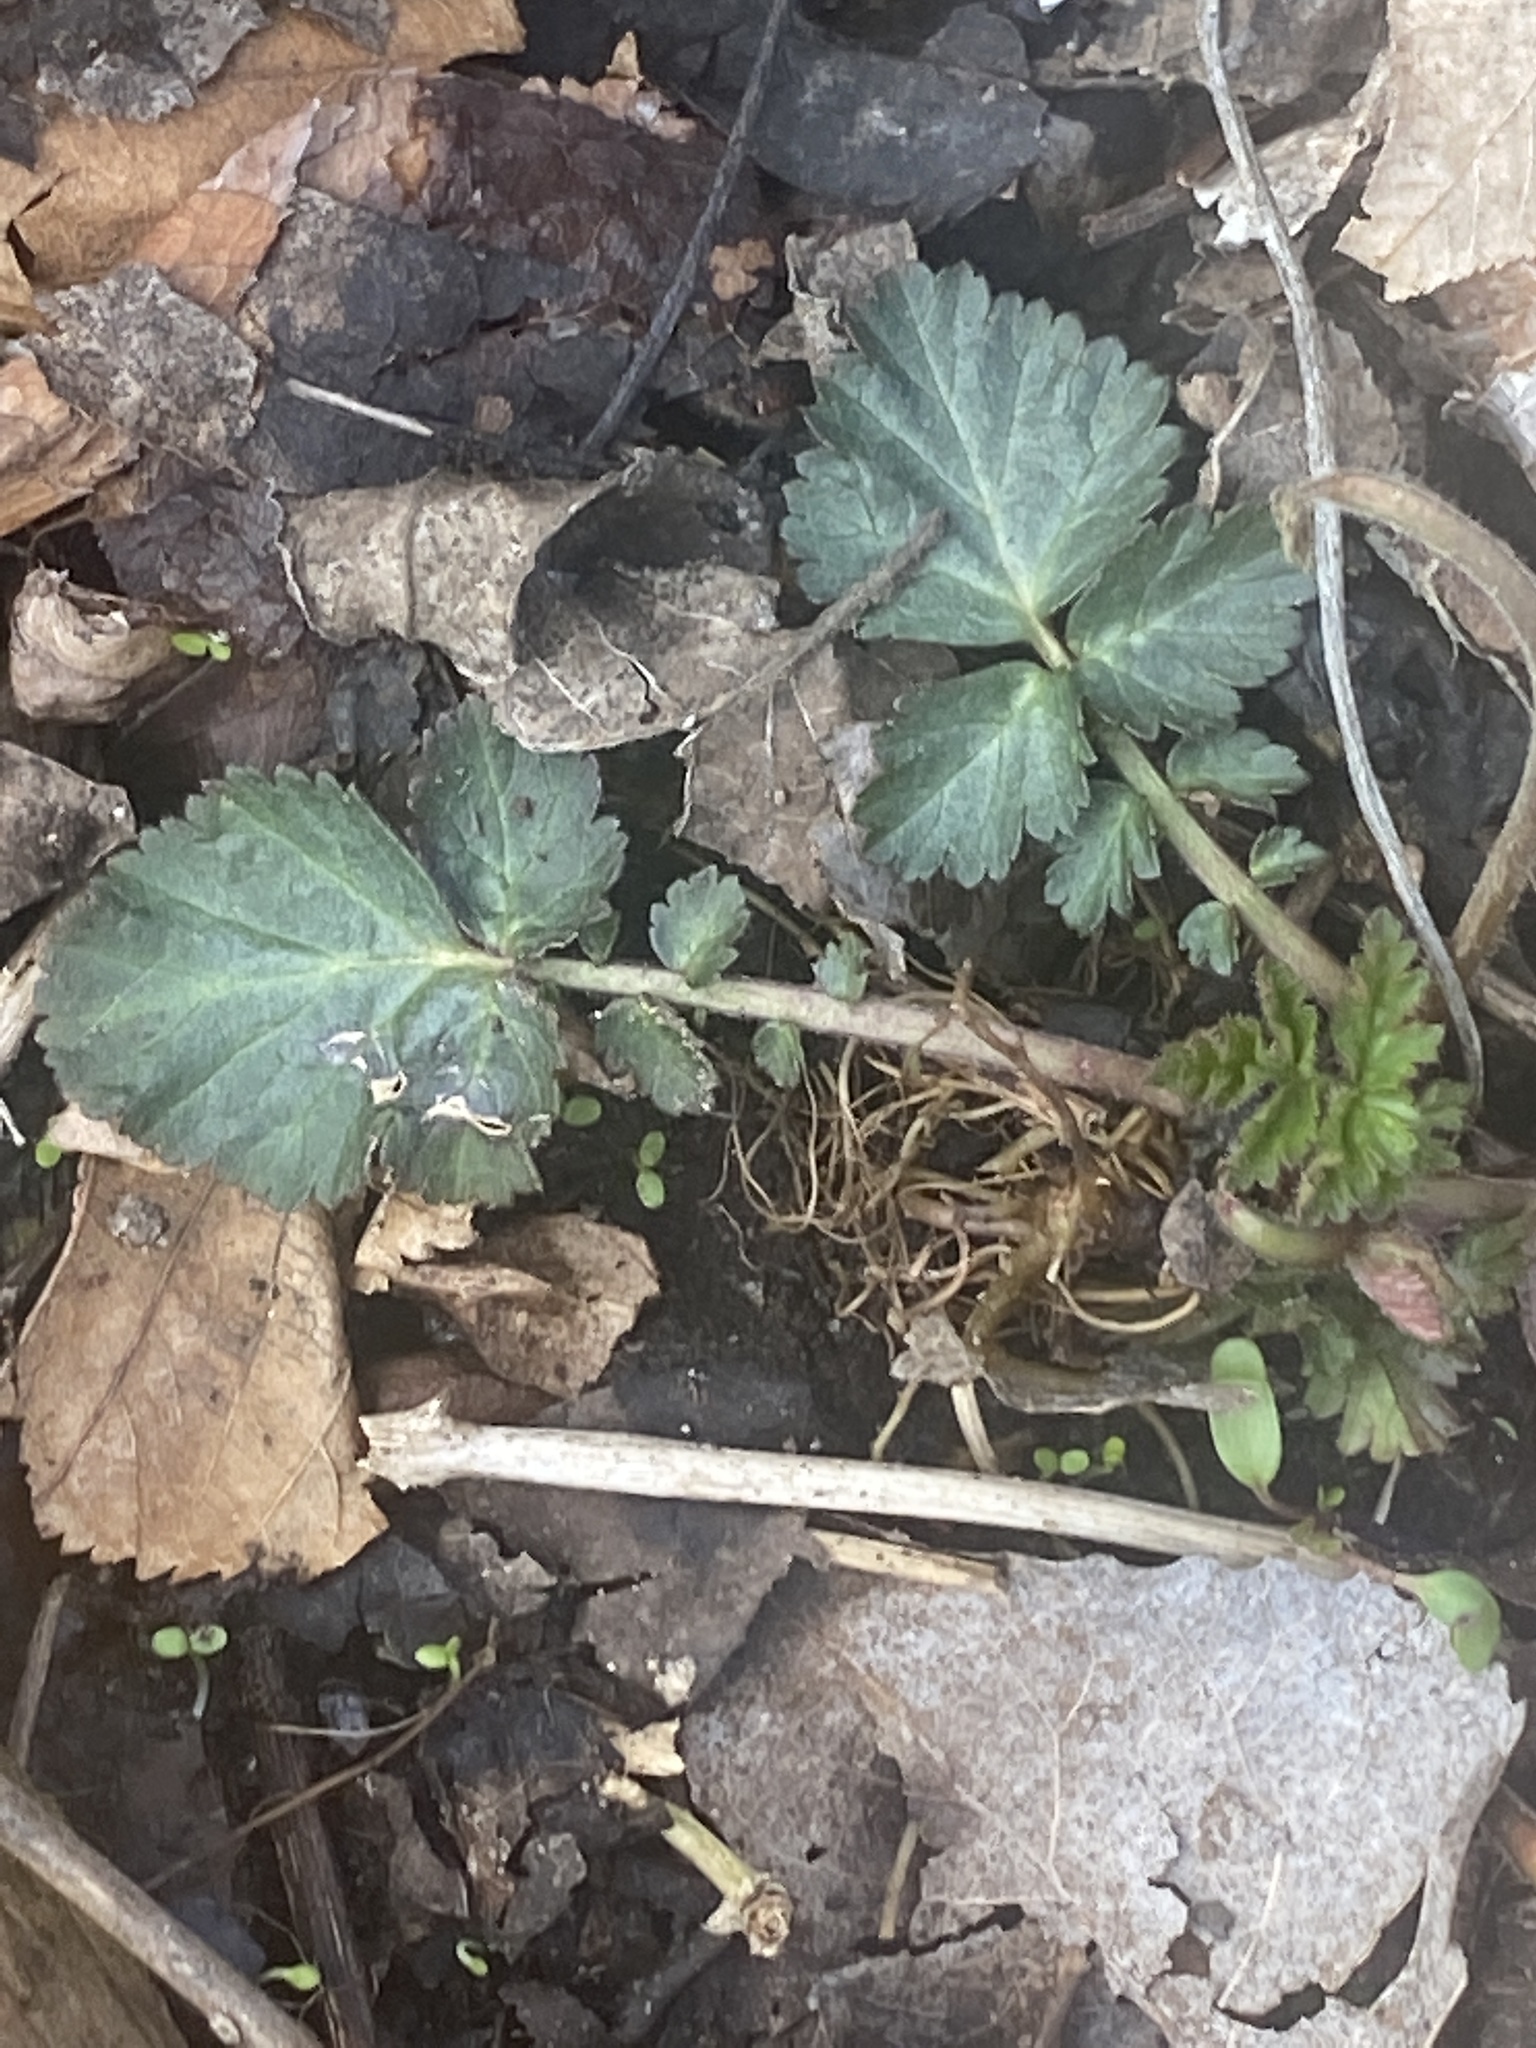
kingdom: Plantae
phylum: Tracheophyta
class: Magnoliopsida
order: Rosales
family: Rosaceae
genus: Geum
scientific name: Geum canadense
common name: White avens
